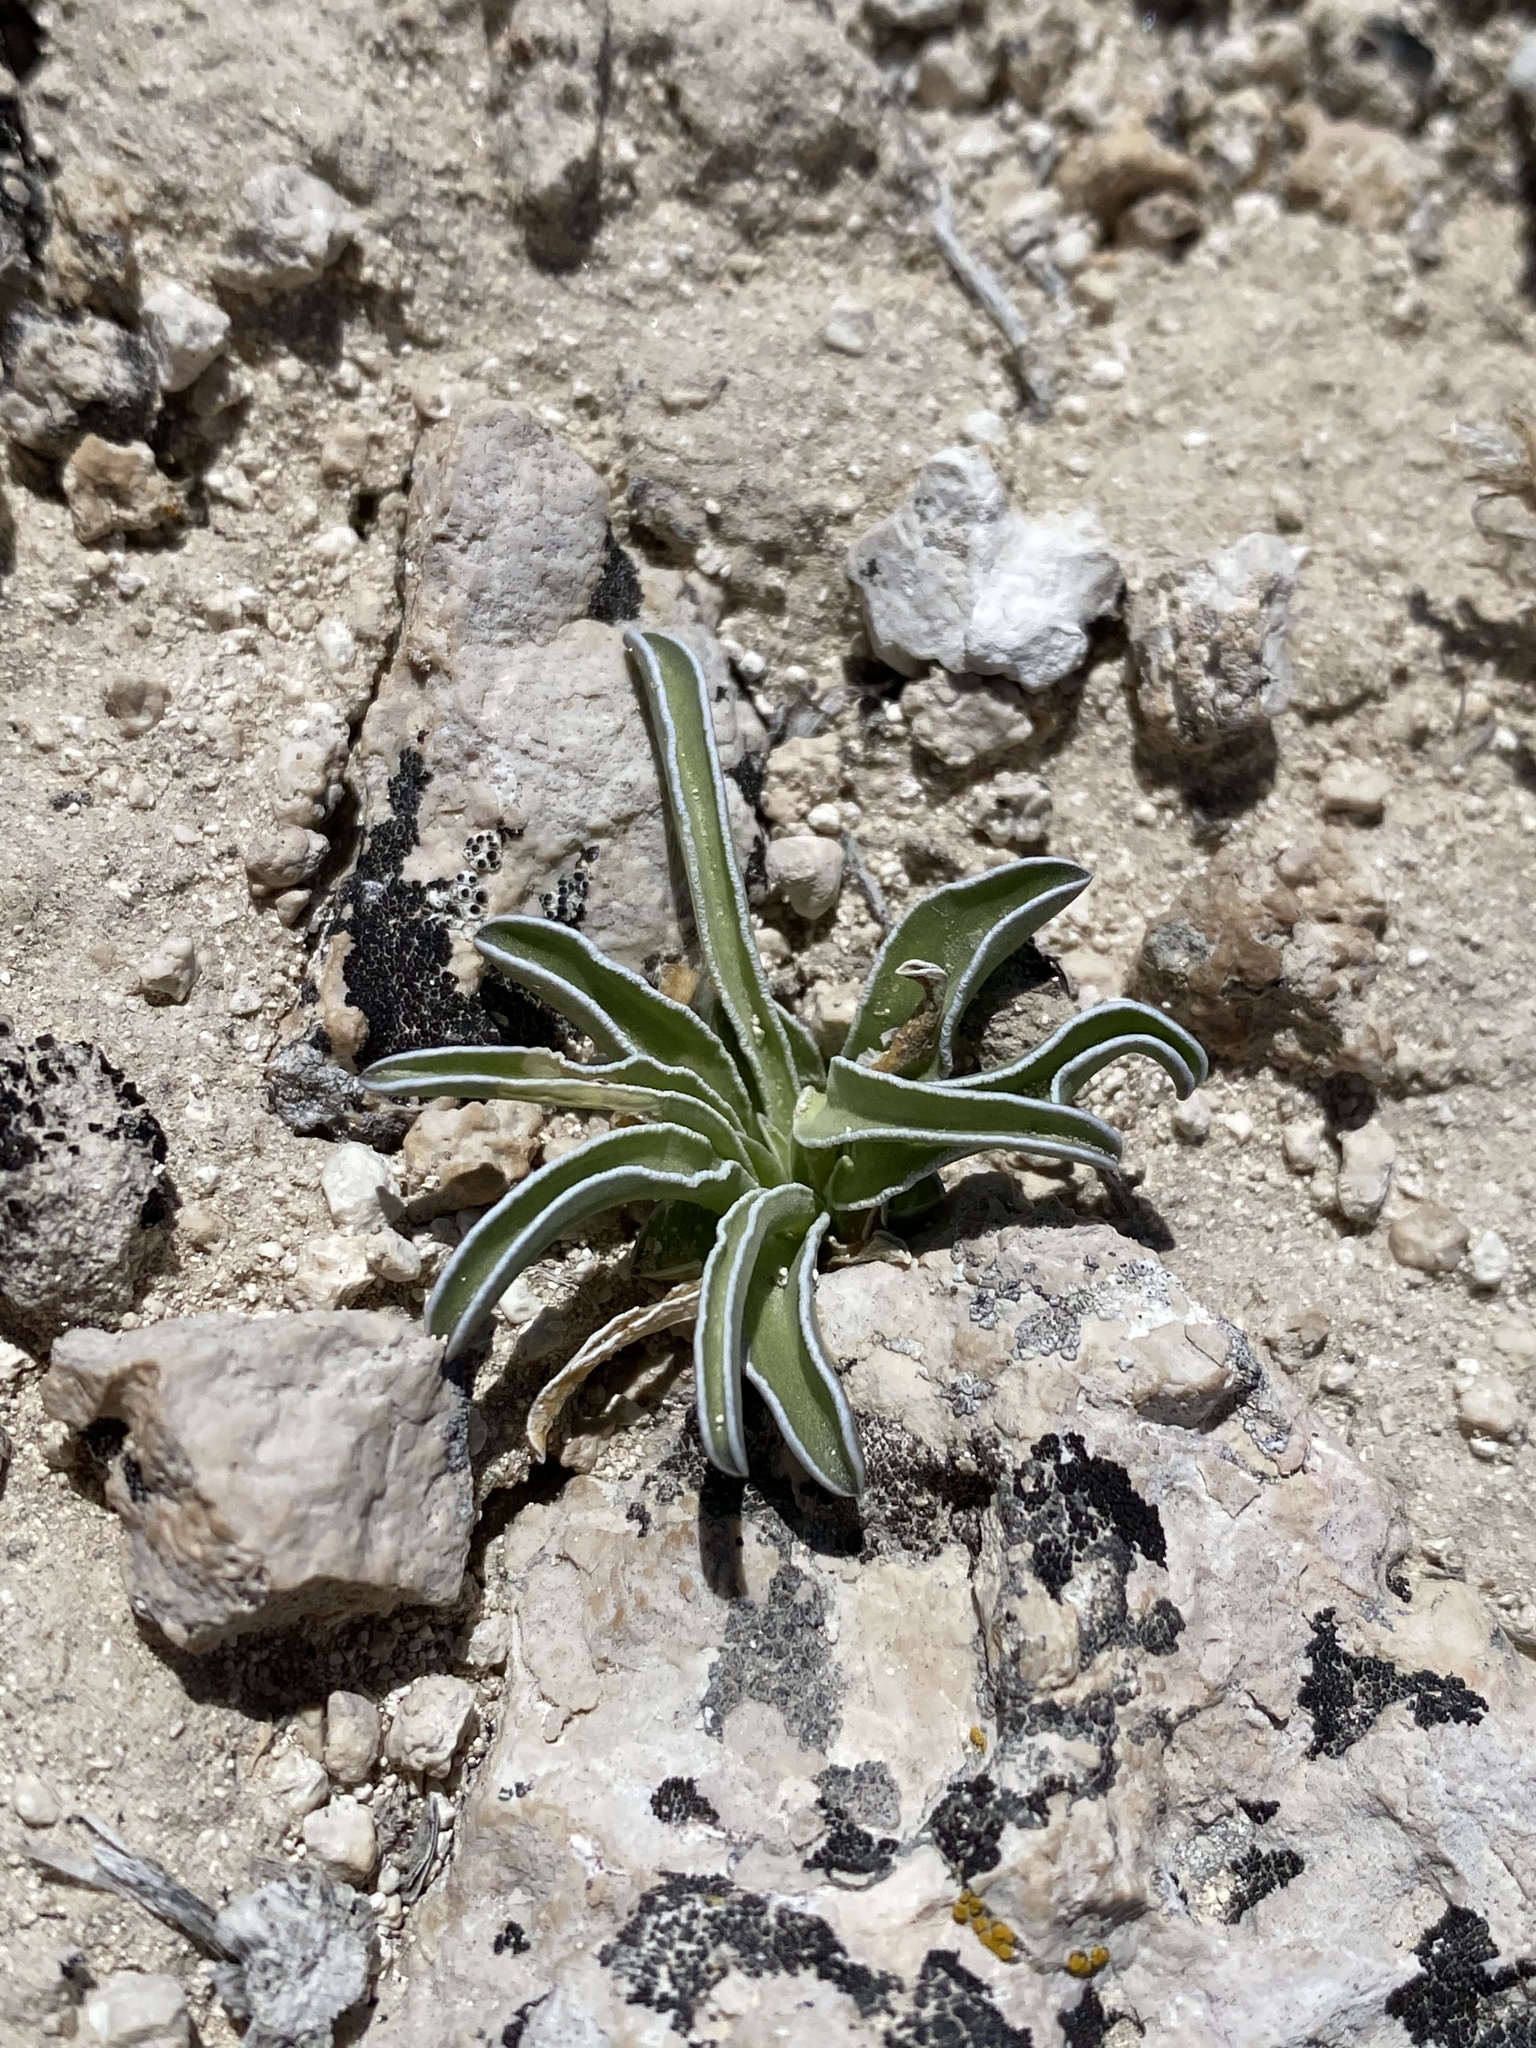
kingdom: Plantae
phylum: Tracheophyta
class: Magnoliopsida
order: Gentianales
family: Gentianaceae
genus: Frasera
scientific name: Frasera albomarginata
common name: Desert frasera
